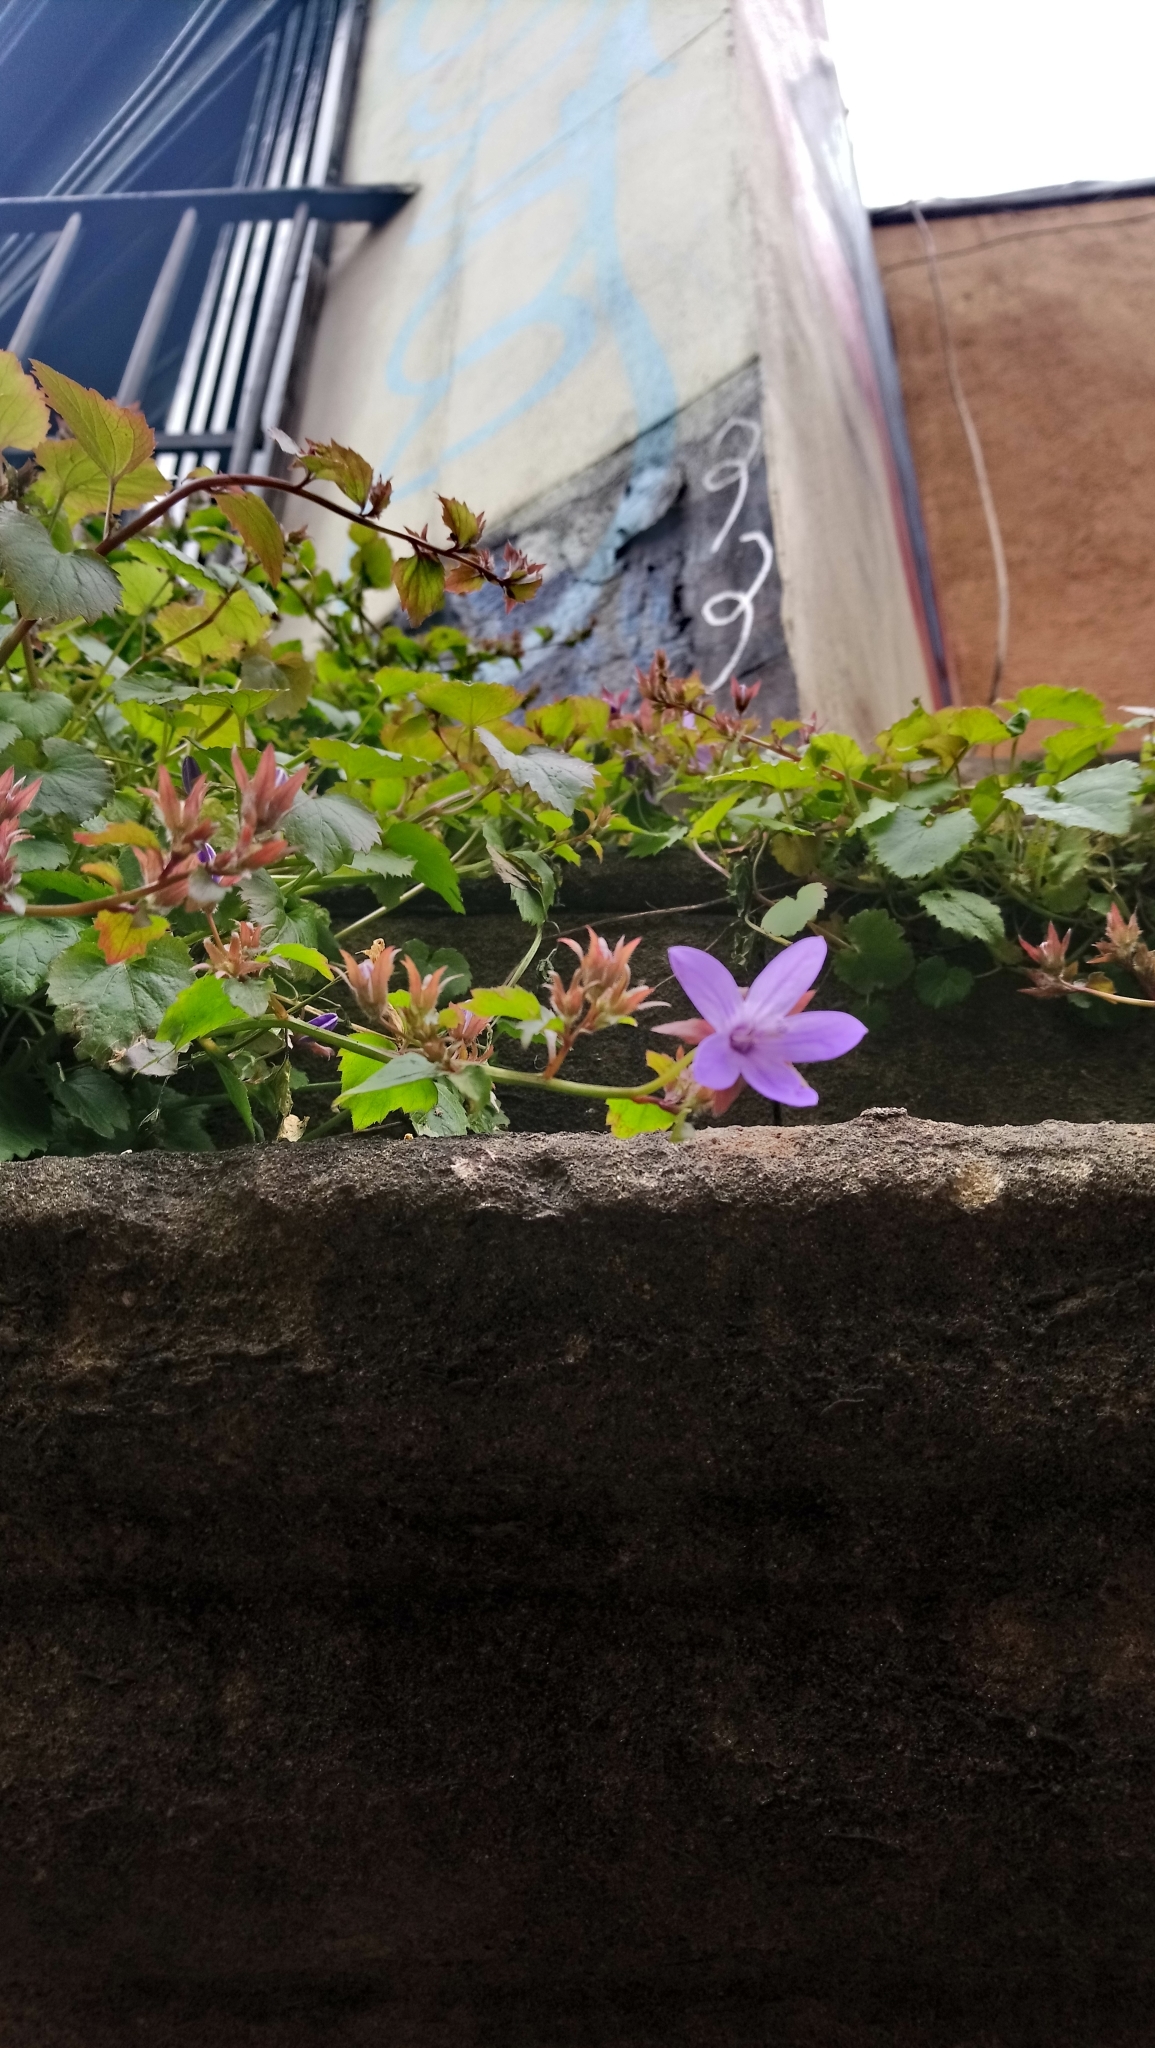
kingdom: Plantae
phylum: Tracheophyta
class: Magnoliopsida
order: Asterales
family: Campanulaceae
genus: Campanula
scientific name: Campanula poscharskyana
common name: Trailing bellflower
